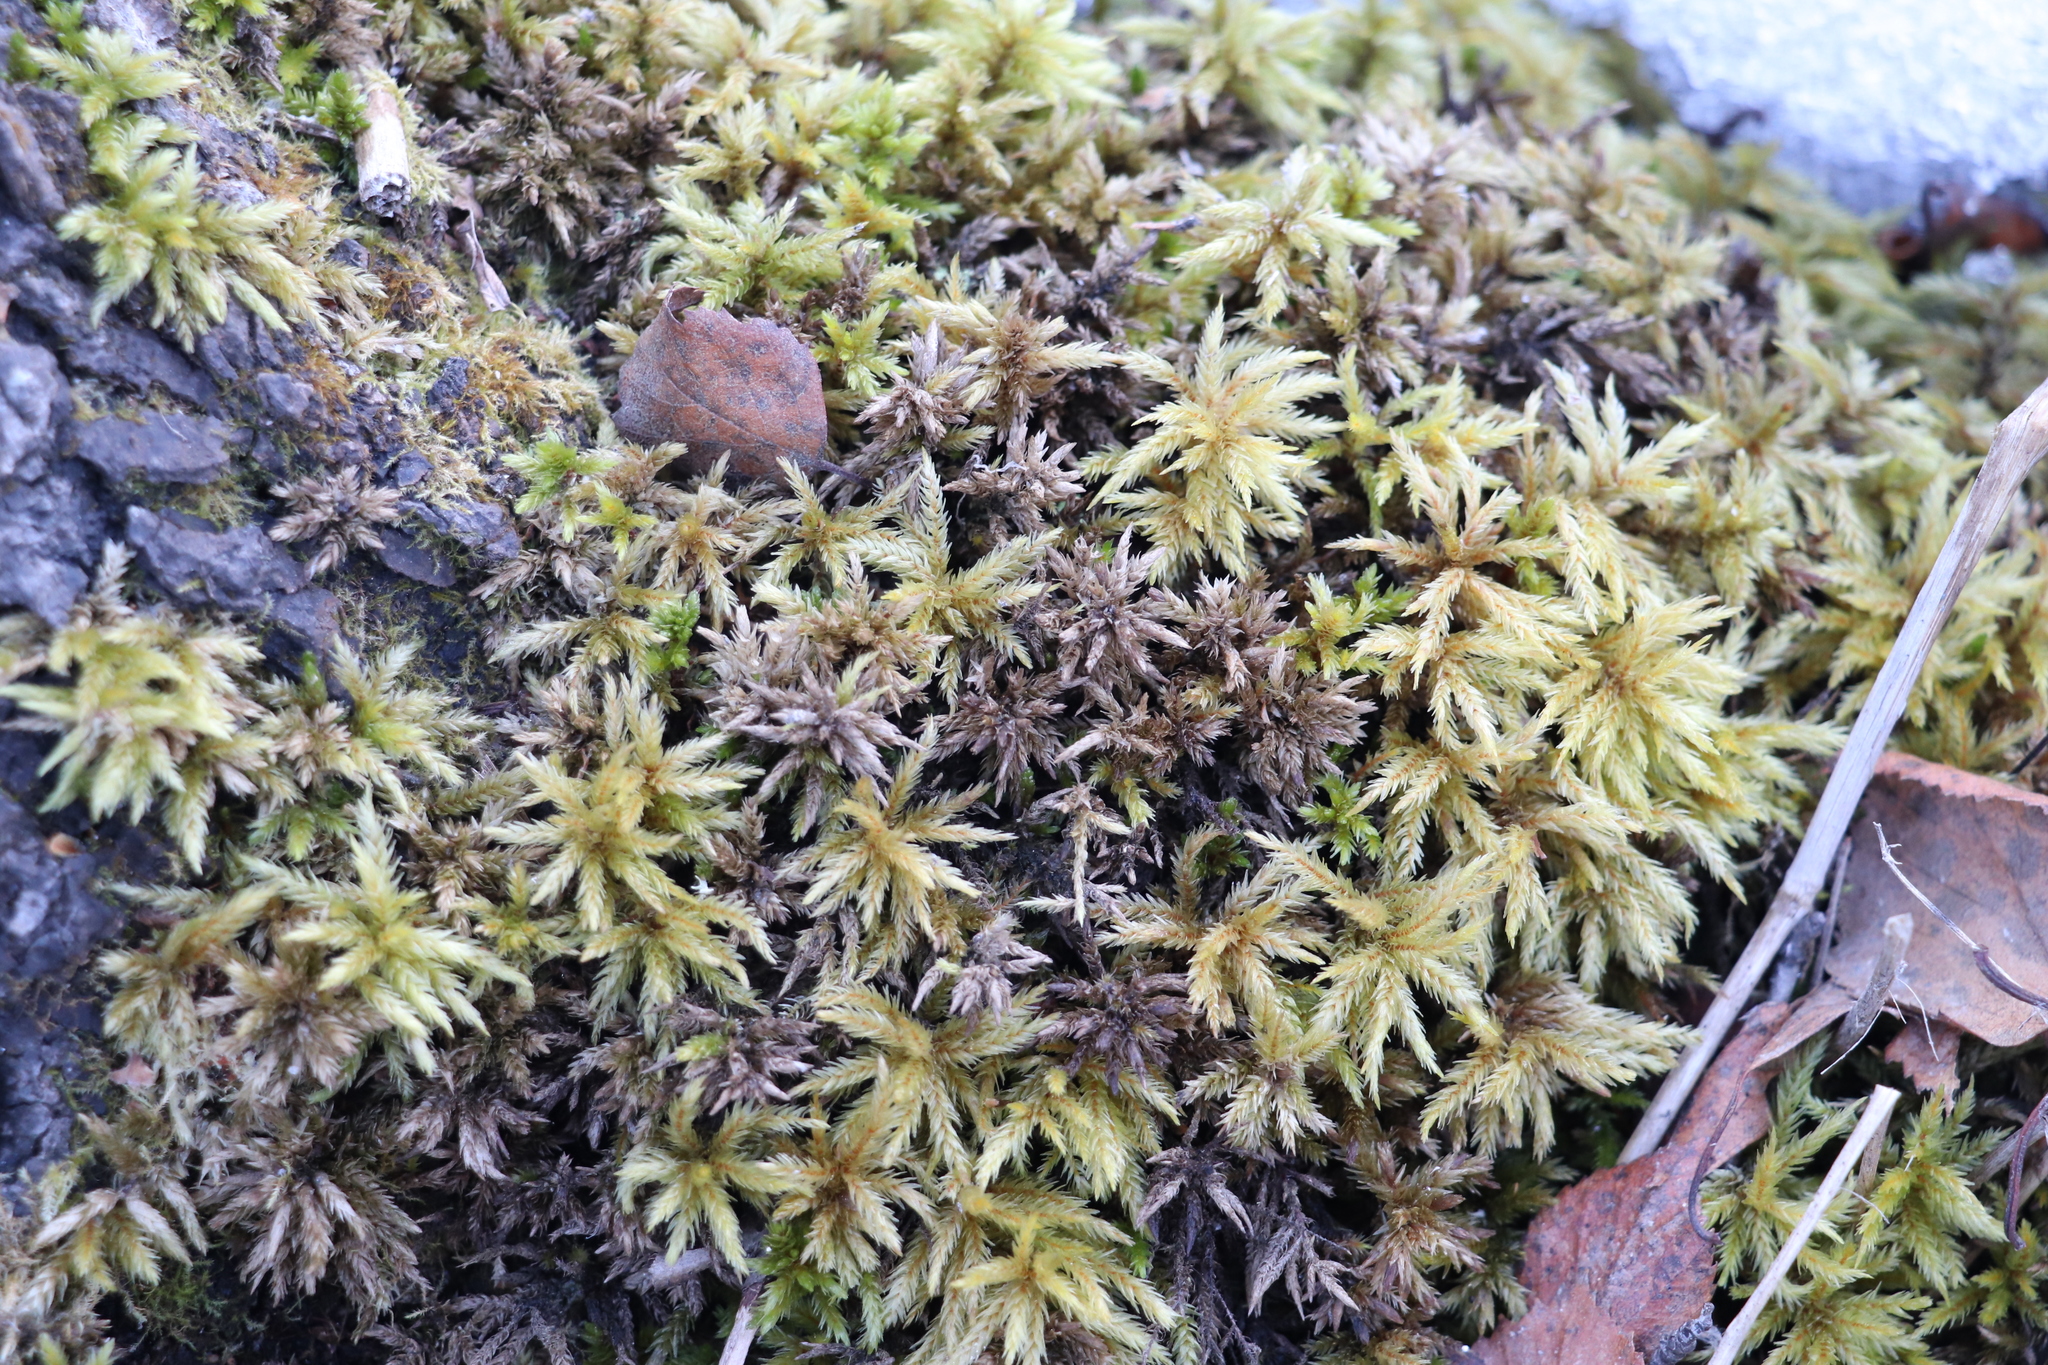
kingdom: Plantae
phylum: Bryophyta
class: Bryopsida
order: Hypnales
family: Climaciaceae
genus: Climacium
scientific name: Climacium dendroides
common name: Northern tree moss
